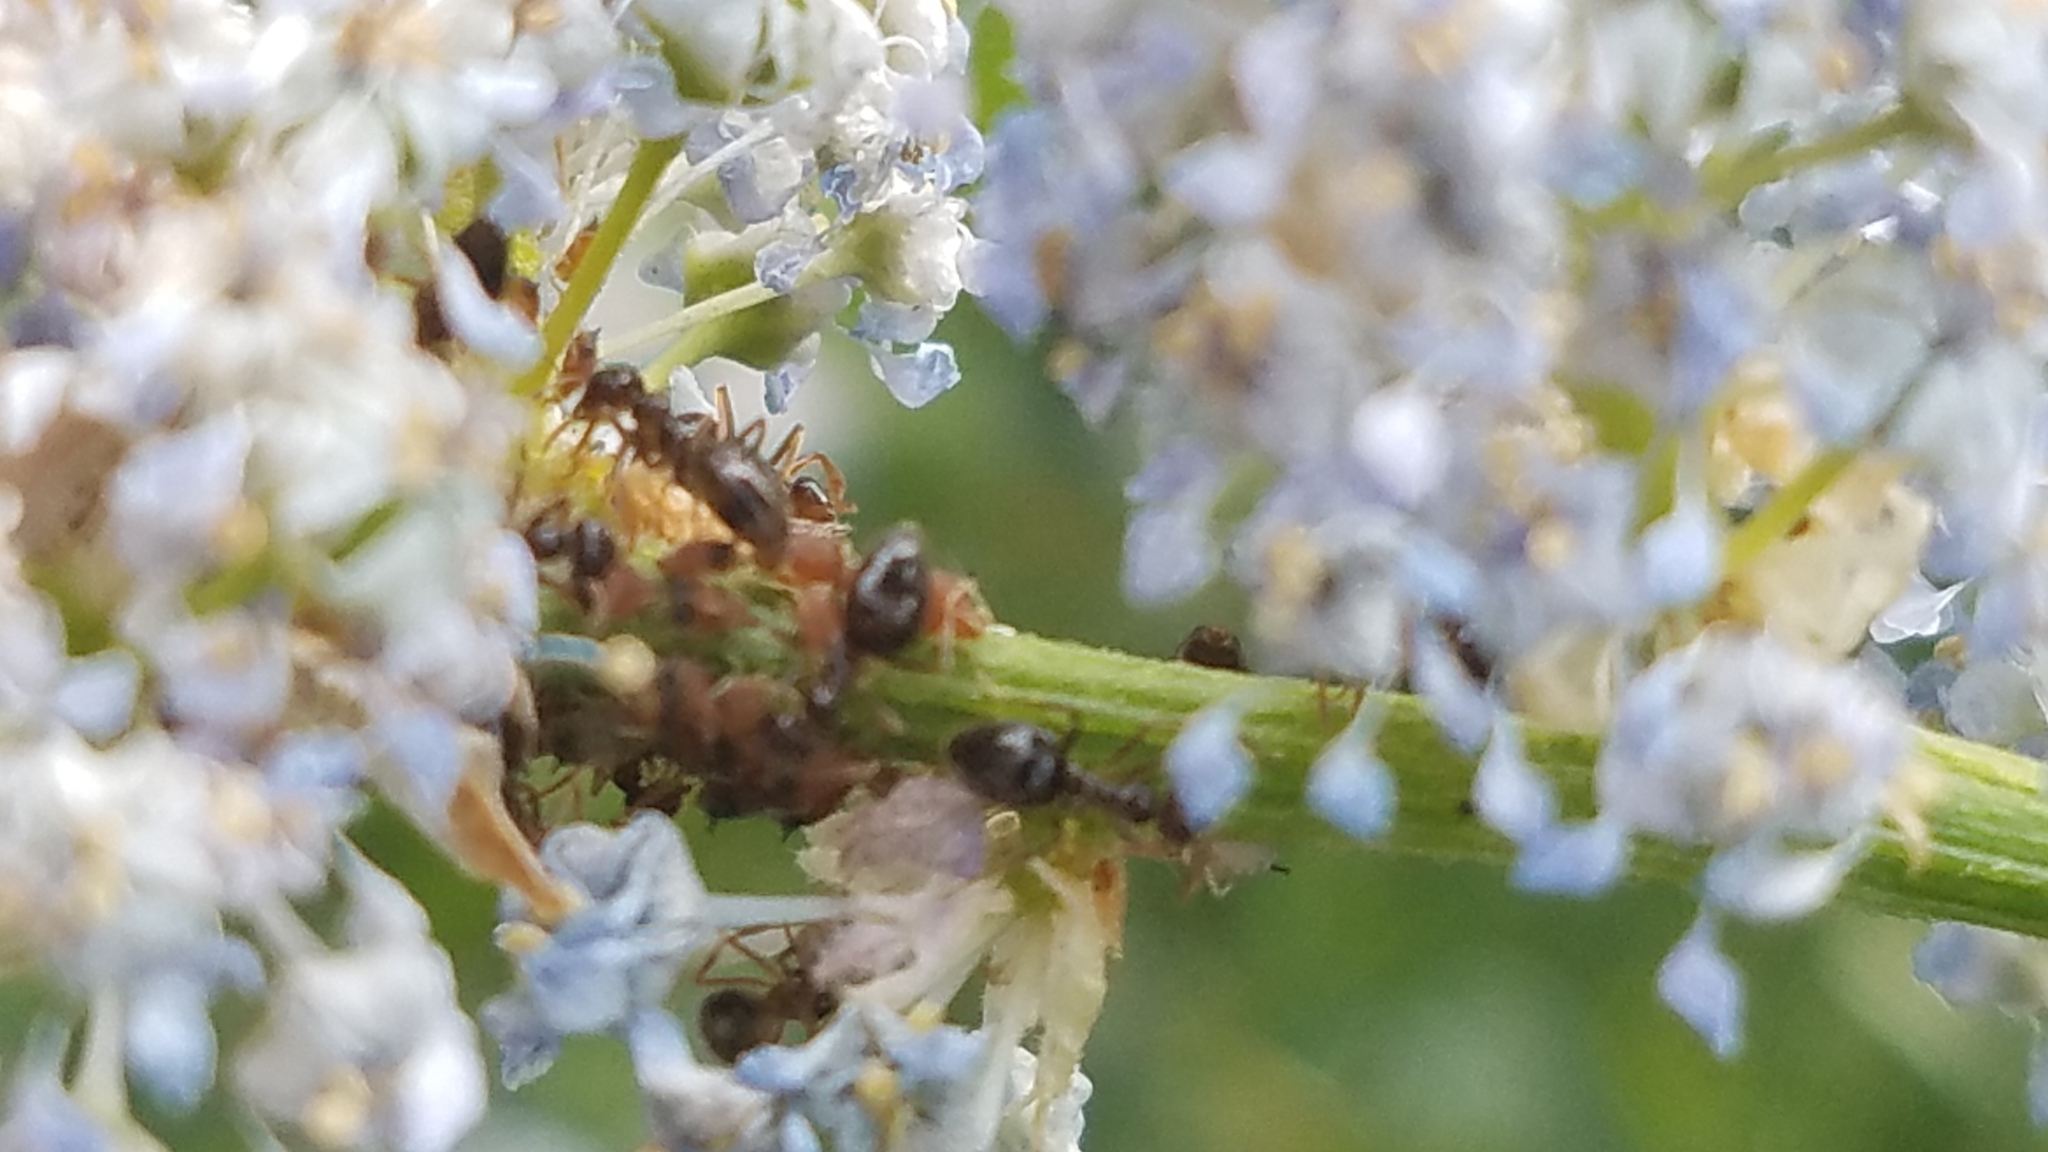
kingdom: Animalia
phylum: Arthropoda
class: Insecta
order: Hymenoptera
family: Formicidae
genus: Prenolepis
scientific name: Prenolepis imparis
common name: Small honey ant
